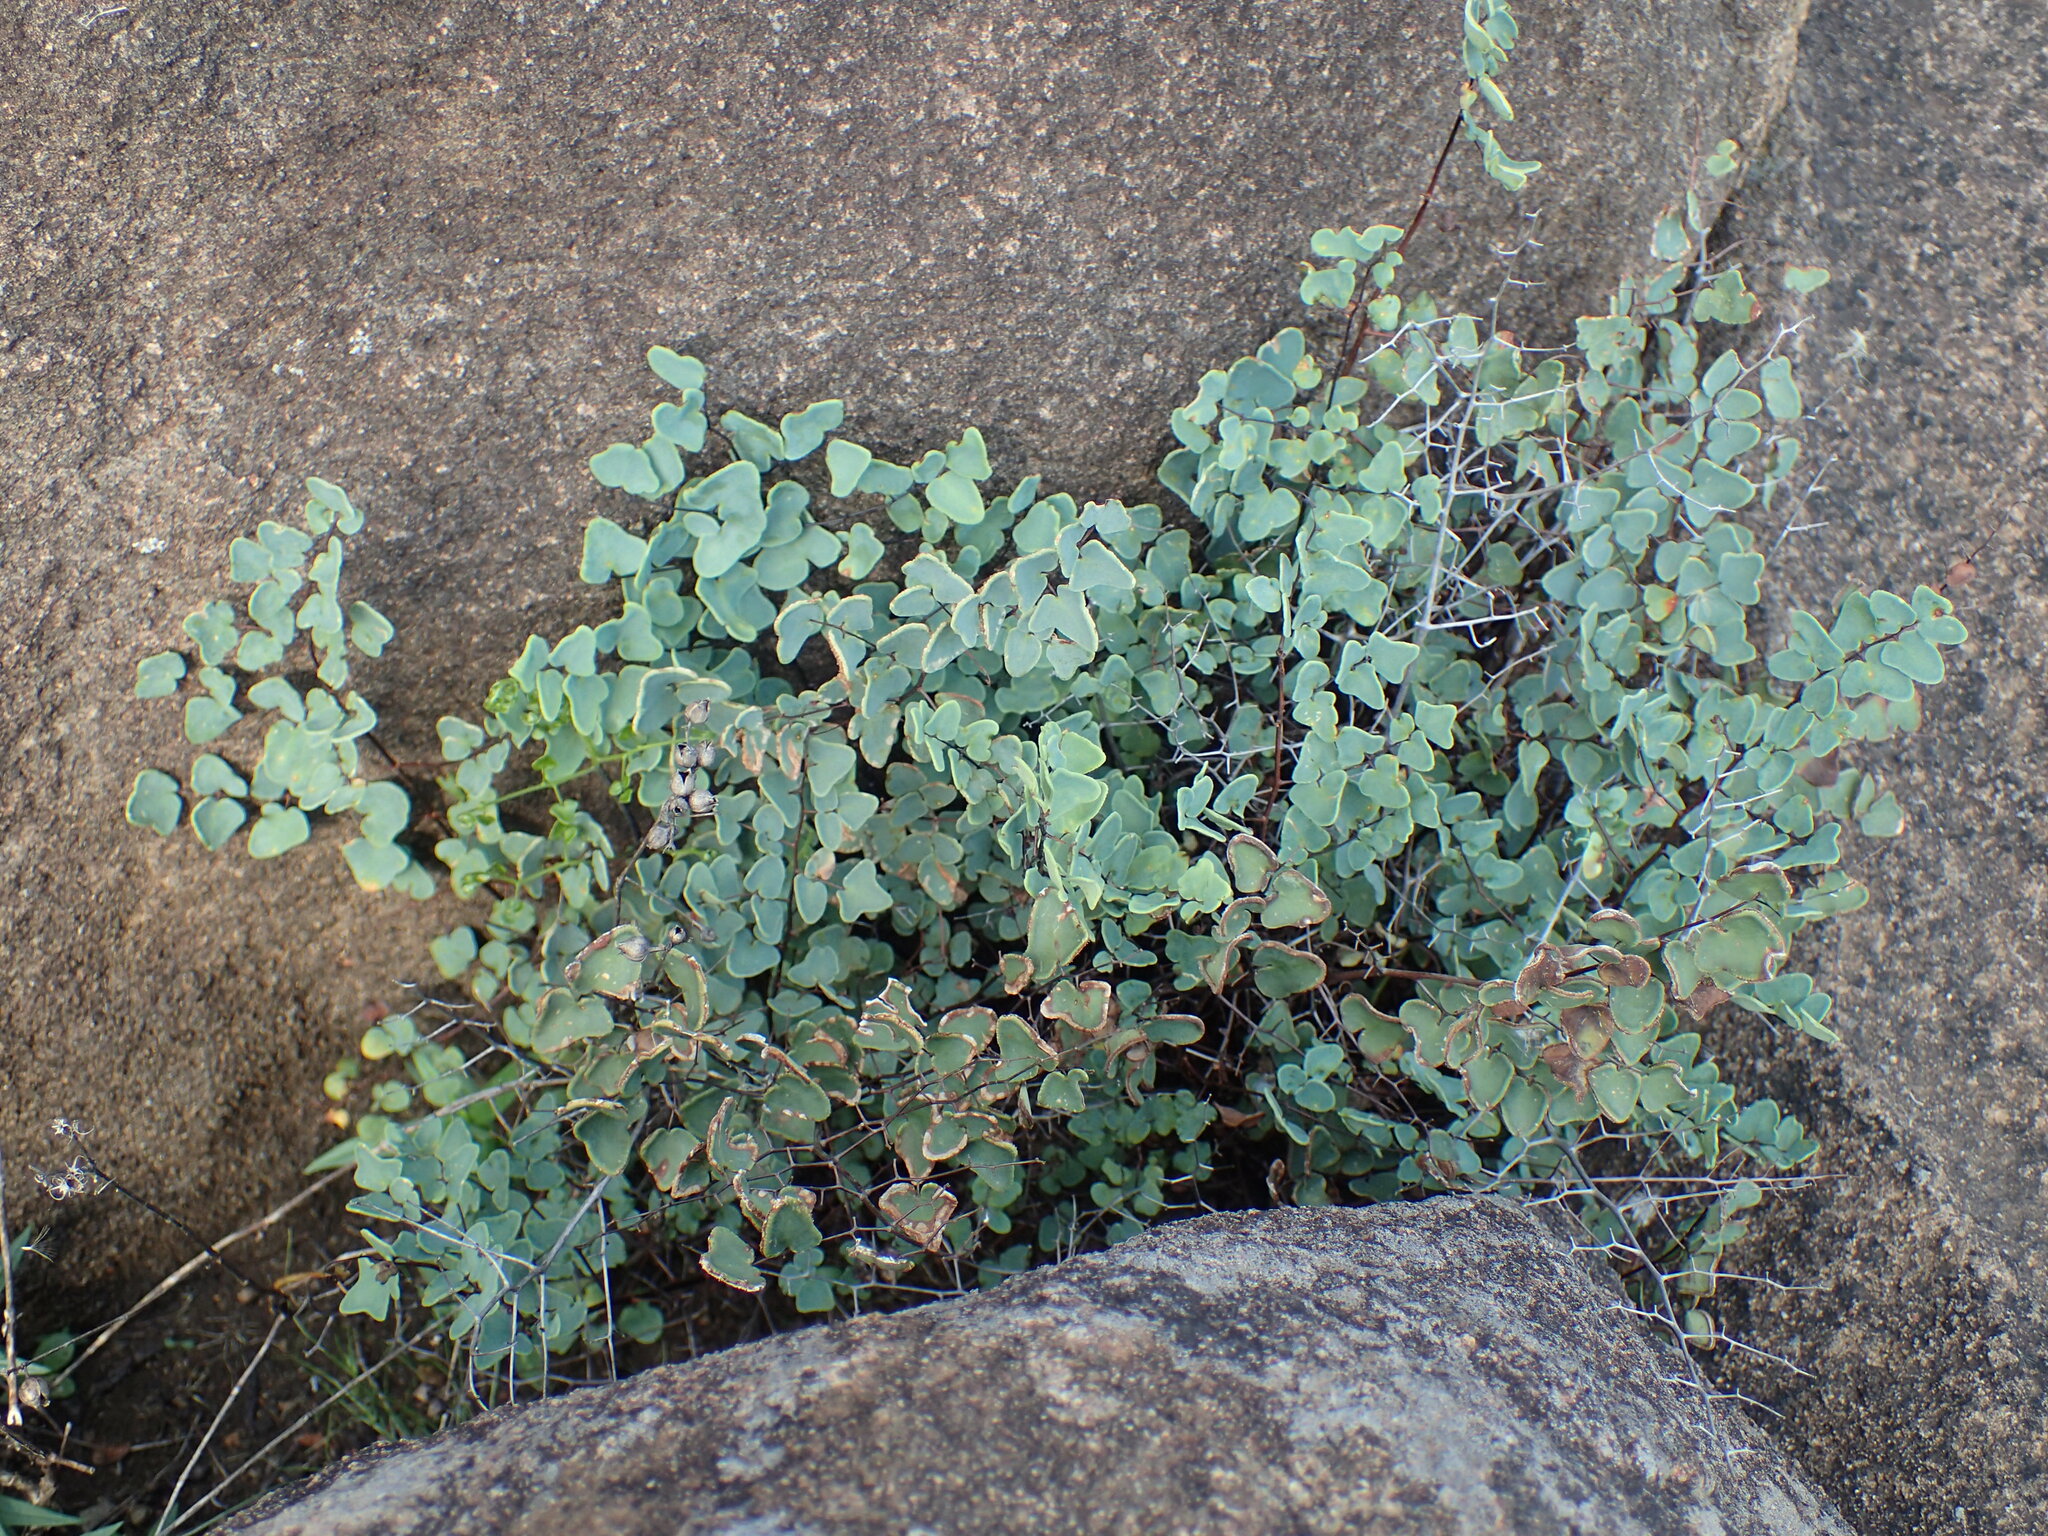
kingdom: Plantae
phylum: Tracheophyta
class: Polypodiopsida
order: Polypodiales
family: Pteridaceae
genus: Pellaea
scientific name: Pellaea calomelanos
